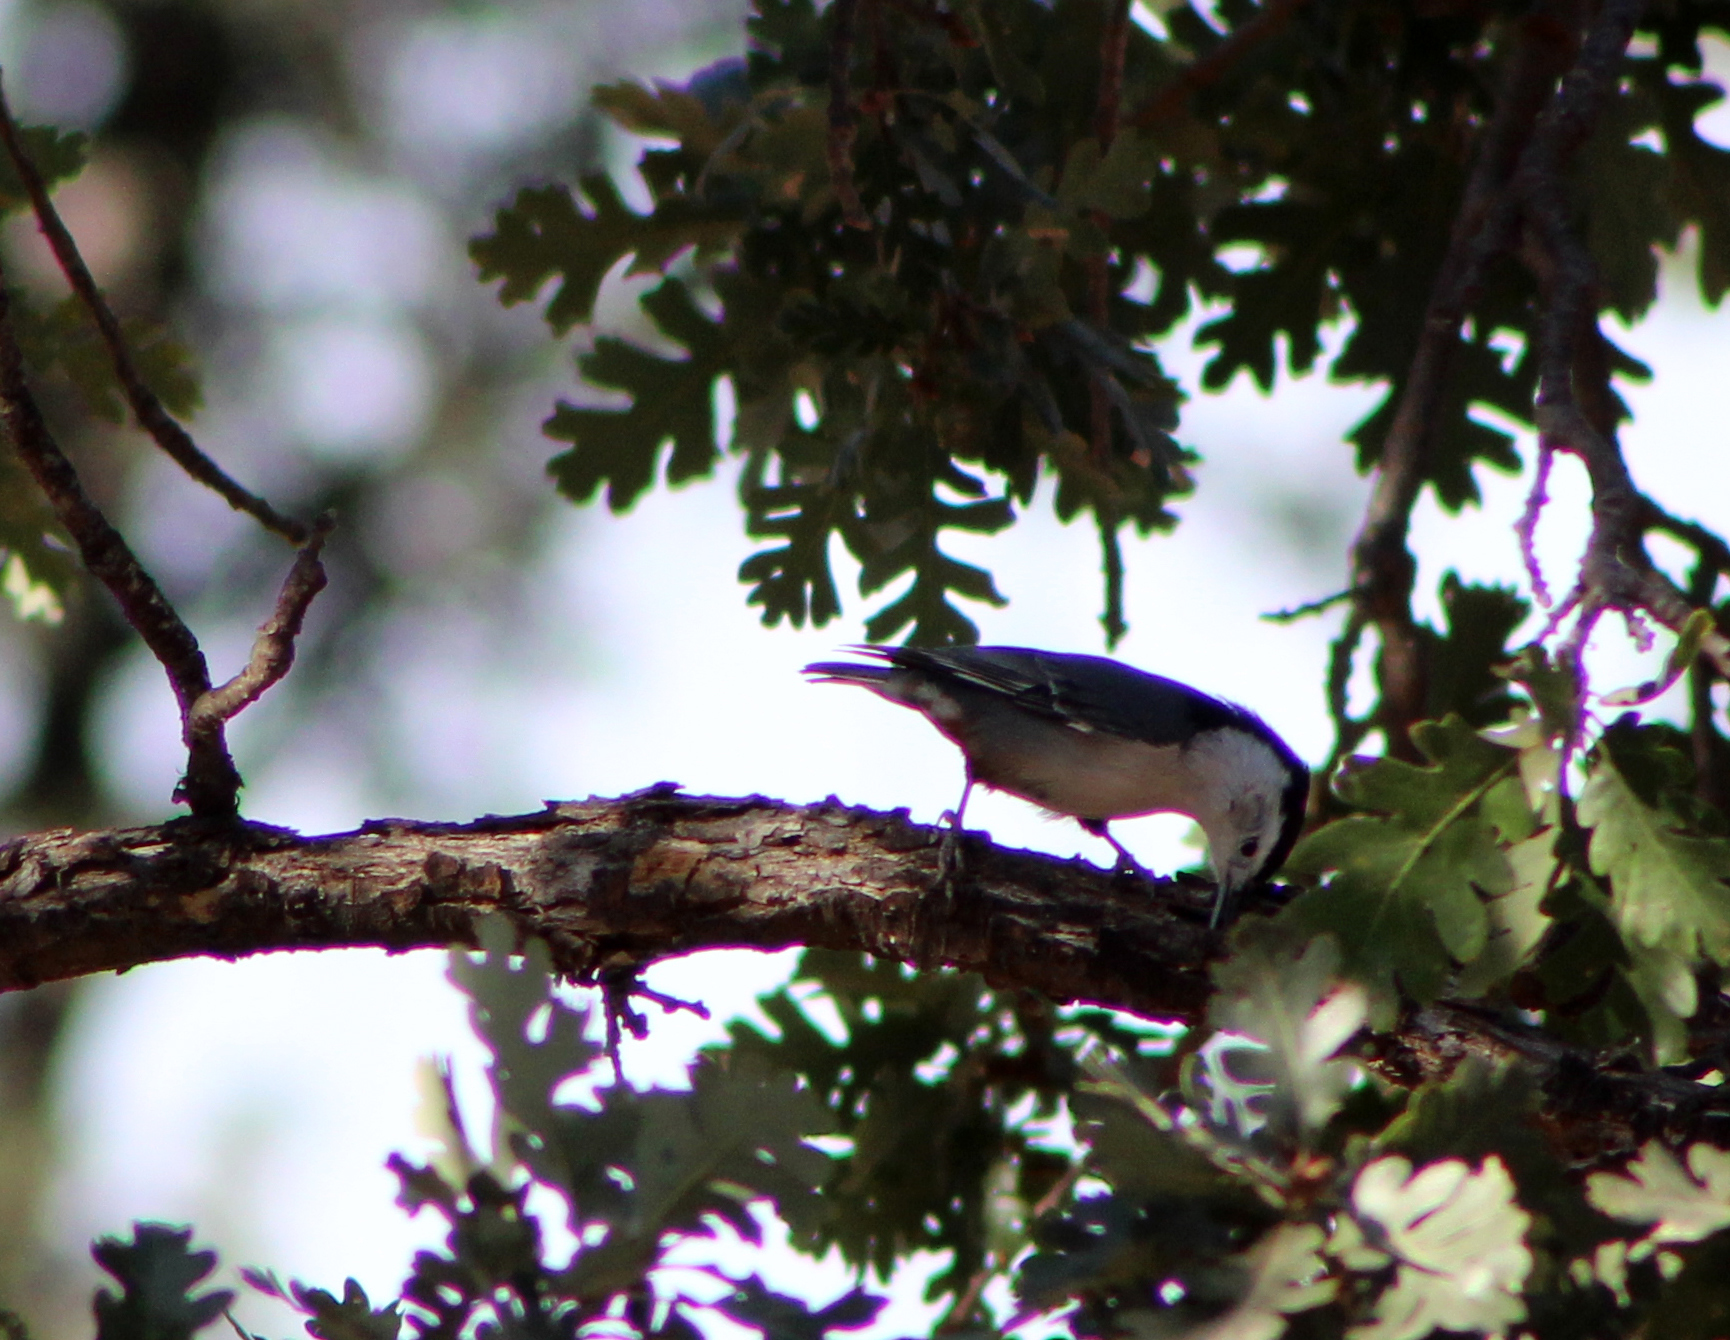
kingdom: Animalia
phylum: Chordata
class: Aves
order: Passeriformes
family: Sittidae
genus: Sitta
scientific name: Sitta carolinensis
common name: White-breasted nuthatch
